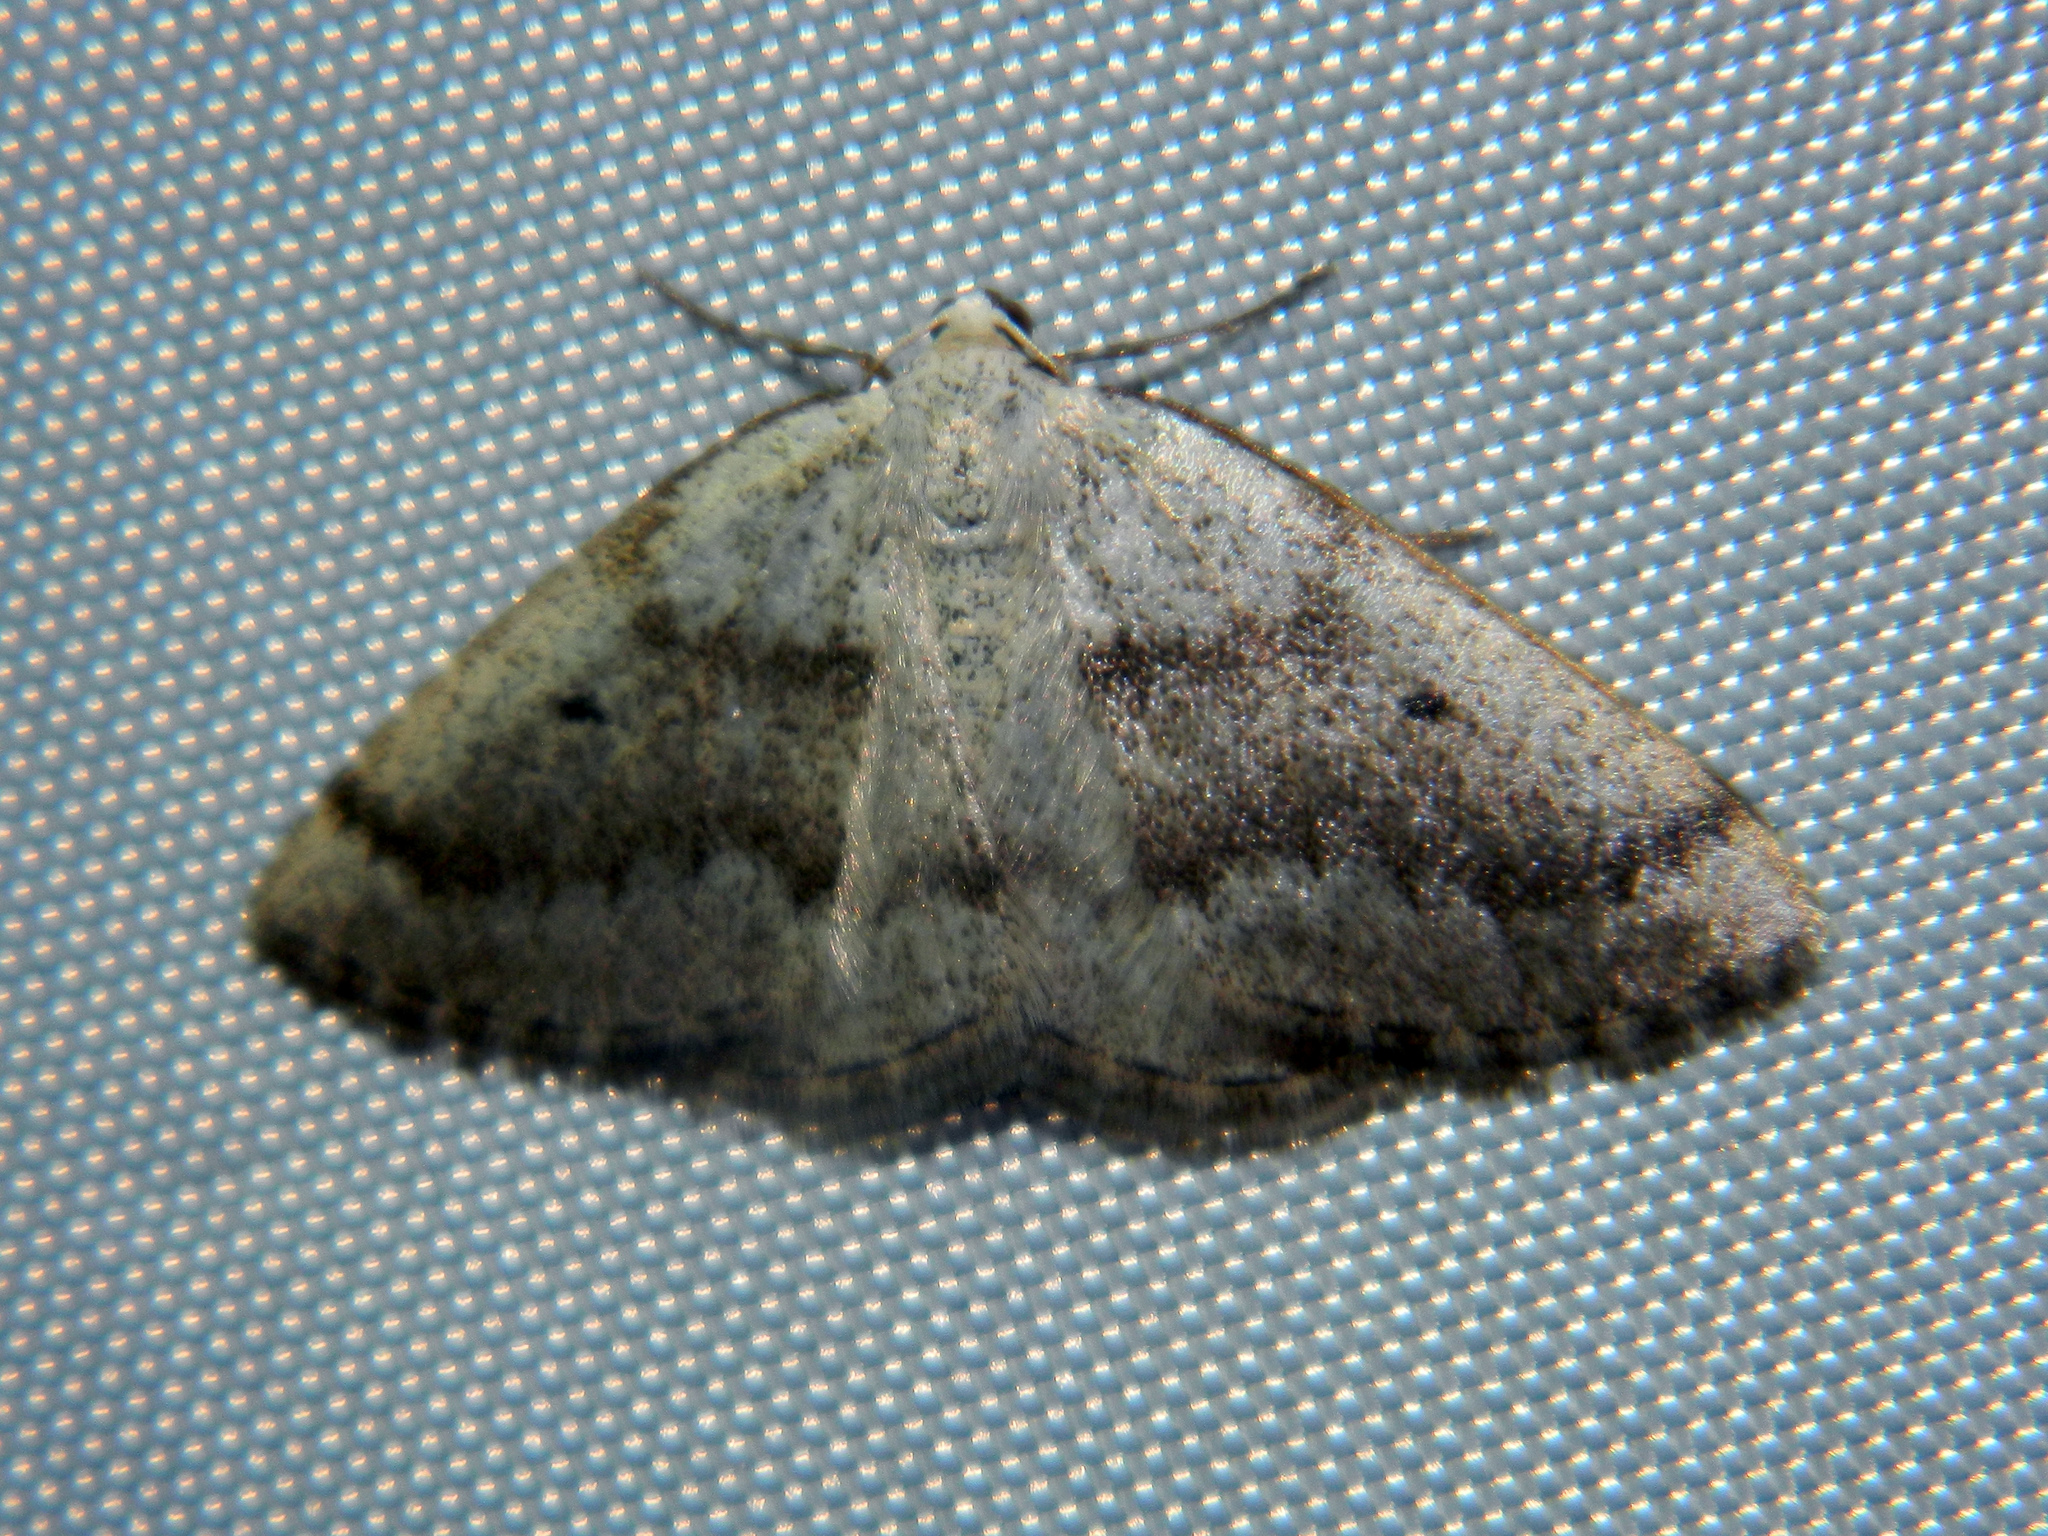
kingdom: Animalia
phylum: Arthropoda
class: Insecta
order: Lepidoptera
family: Geometridae
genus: Lomographa
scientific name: Lomographa glomeraria
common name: Gray spring moth
